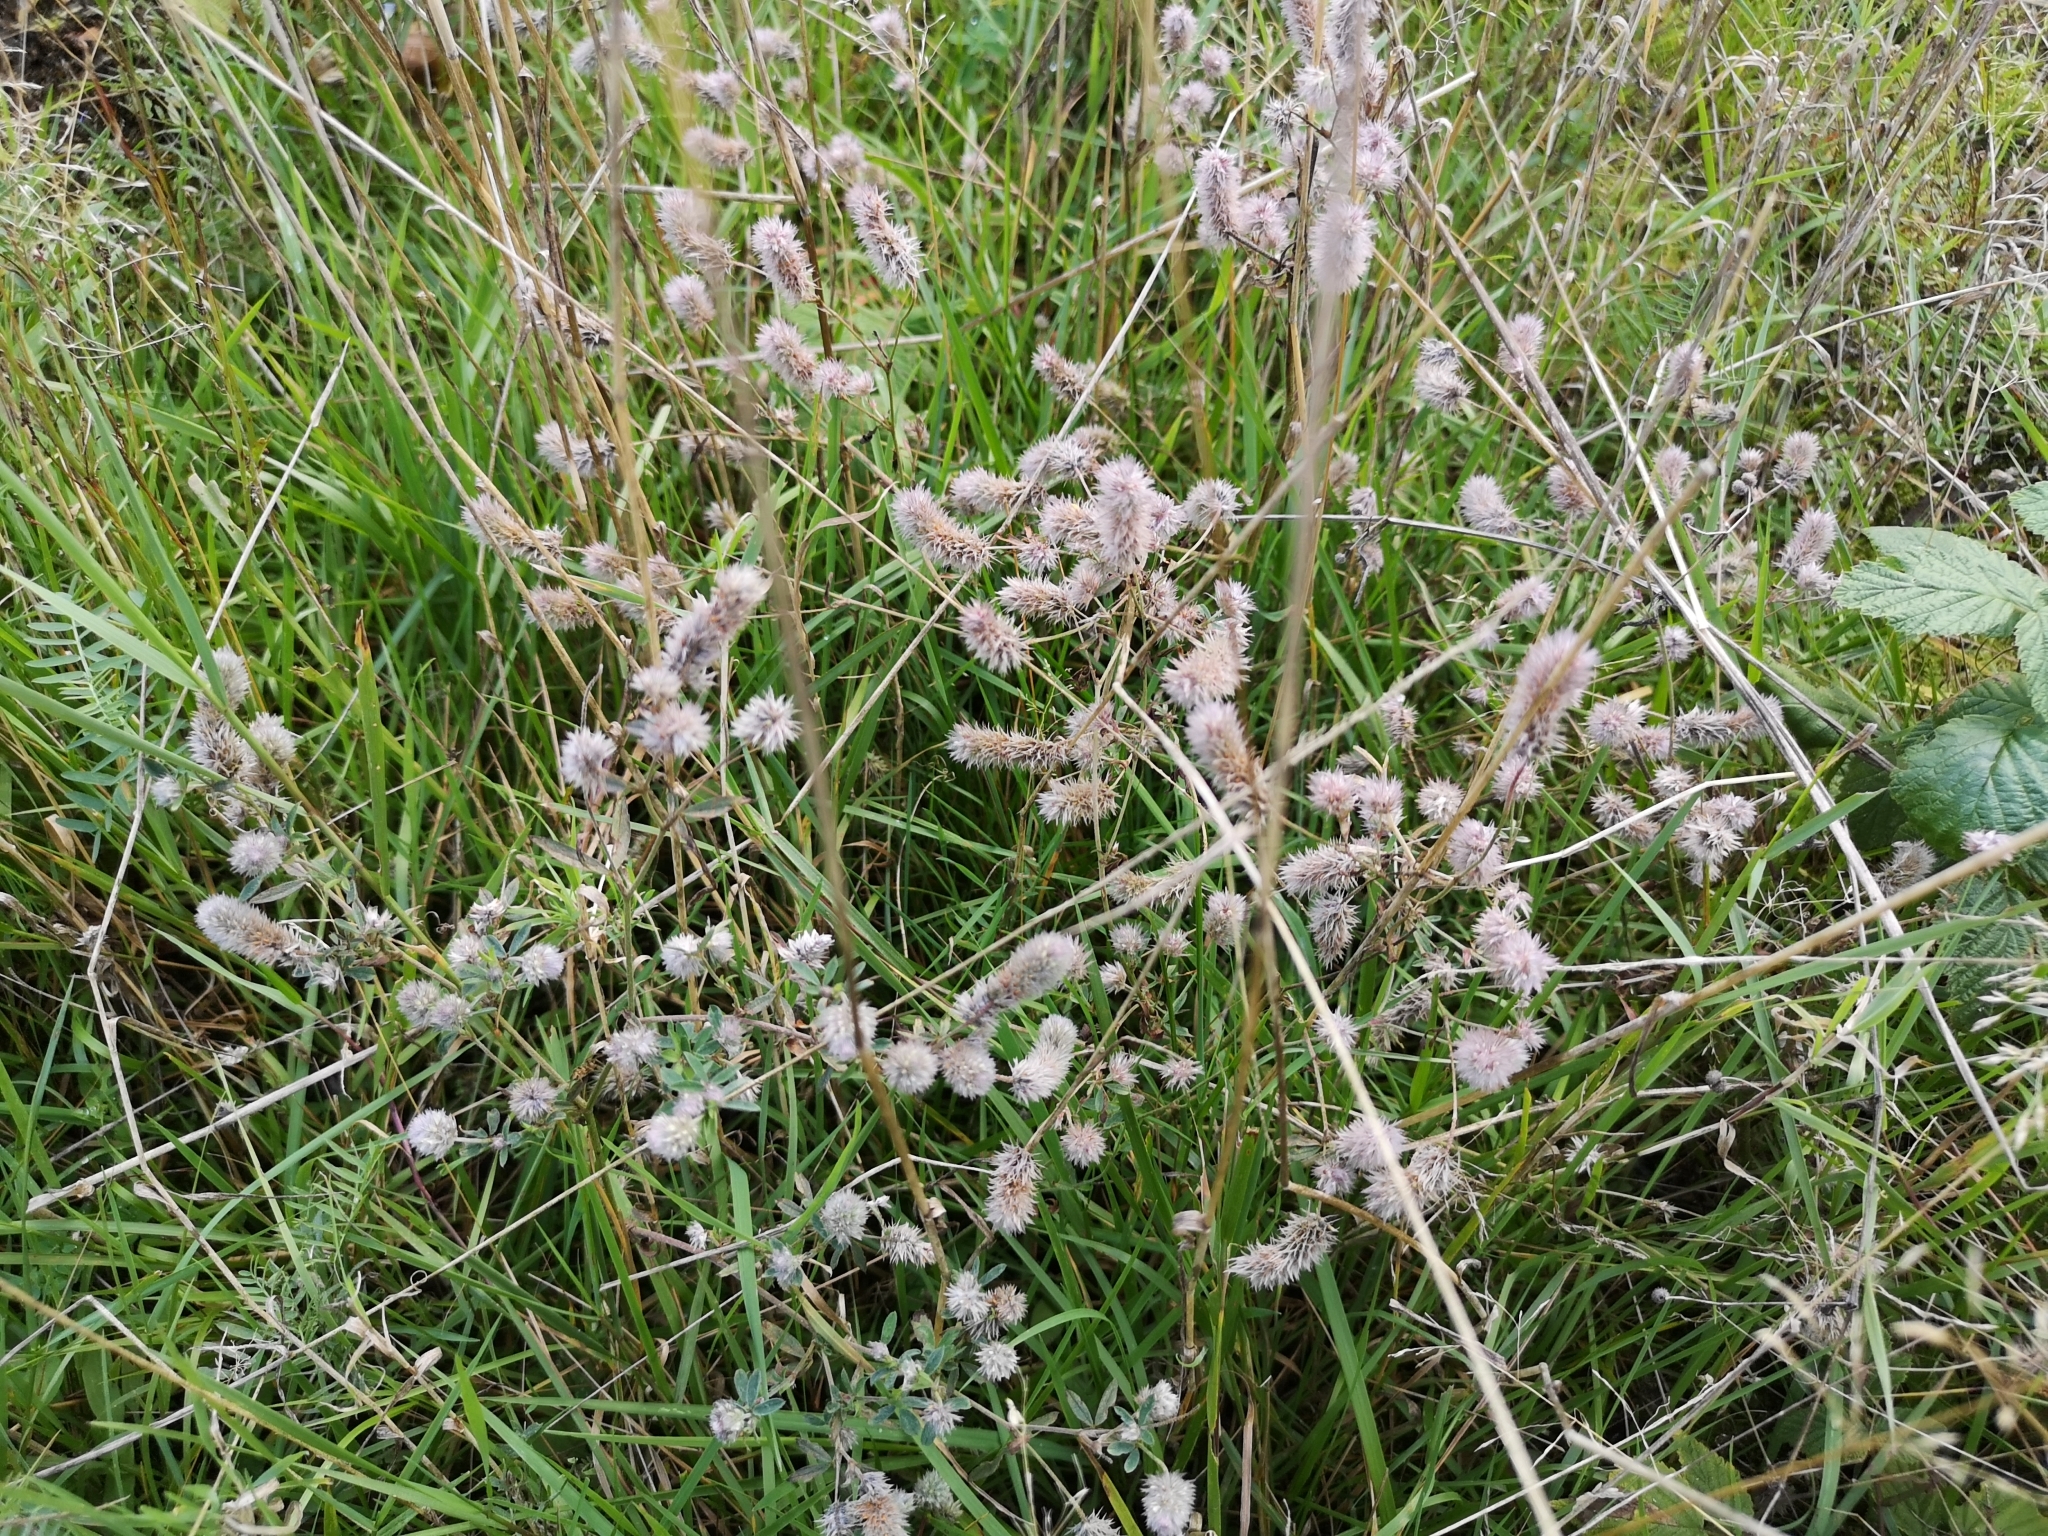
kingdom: Plantae
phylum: Tracheophyta
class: Magnoliopsida
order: Fabales
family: Fabaceae
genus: Trifolium
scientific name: Trifolium arvense
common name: Hare's-foot clover
